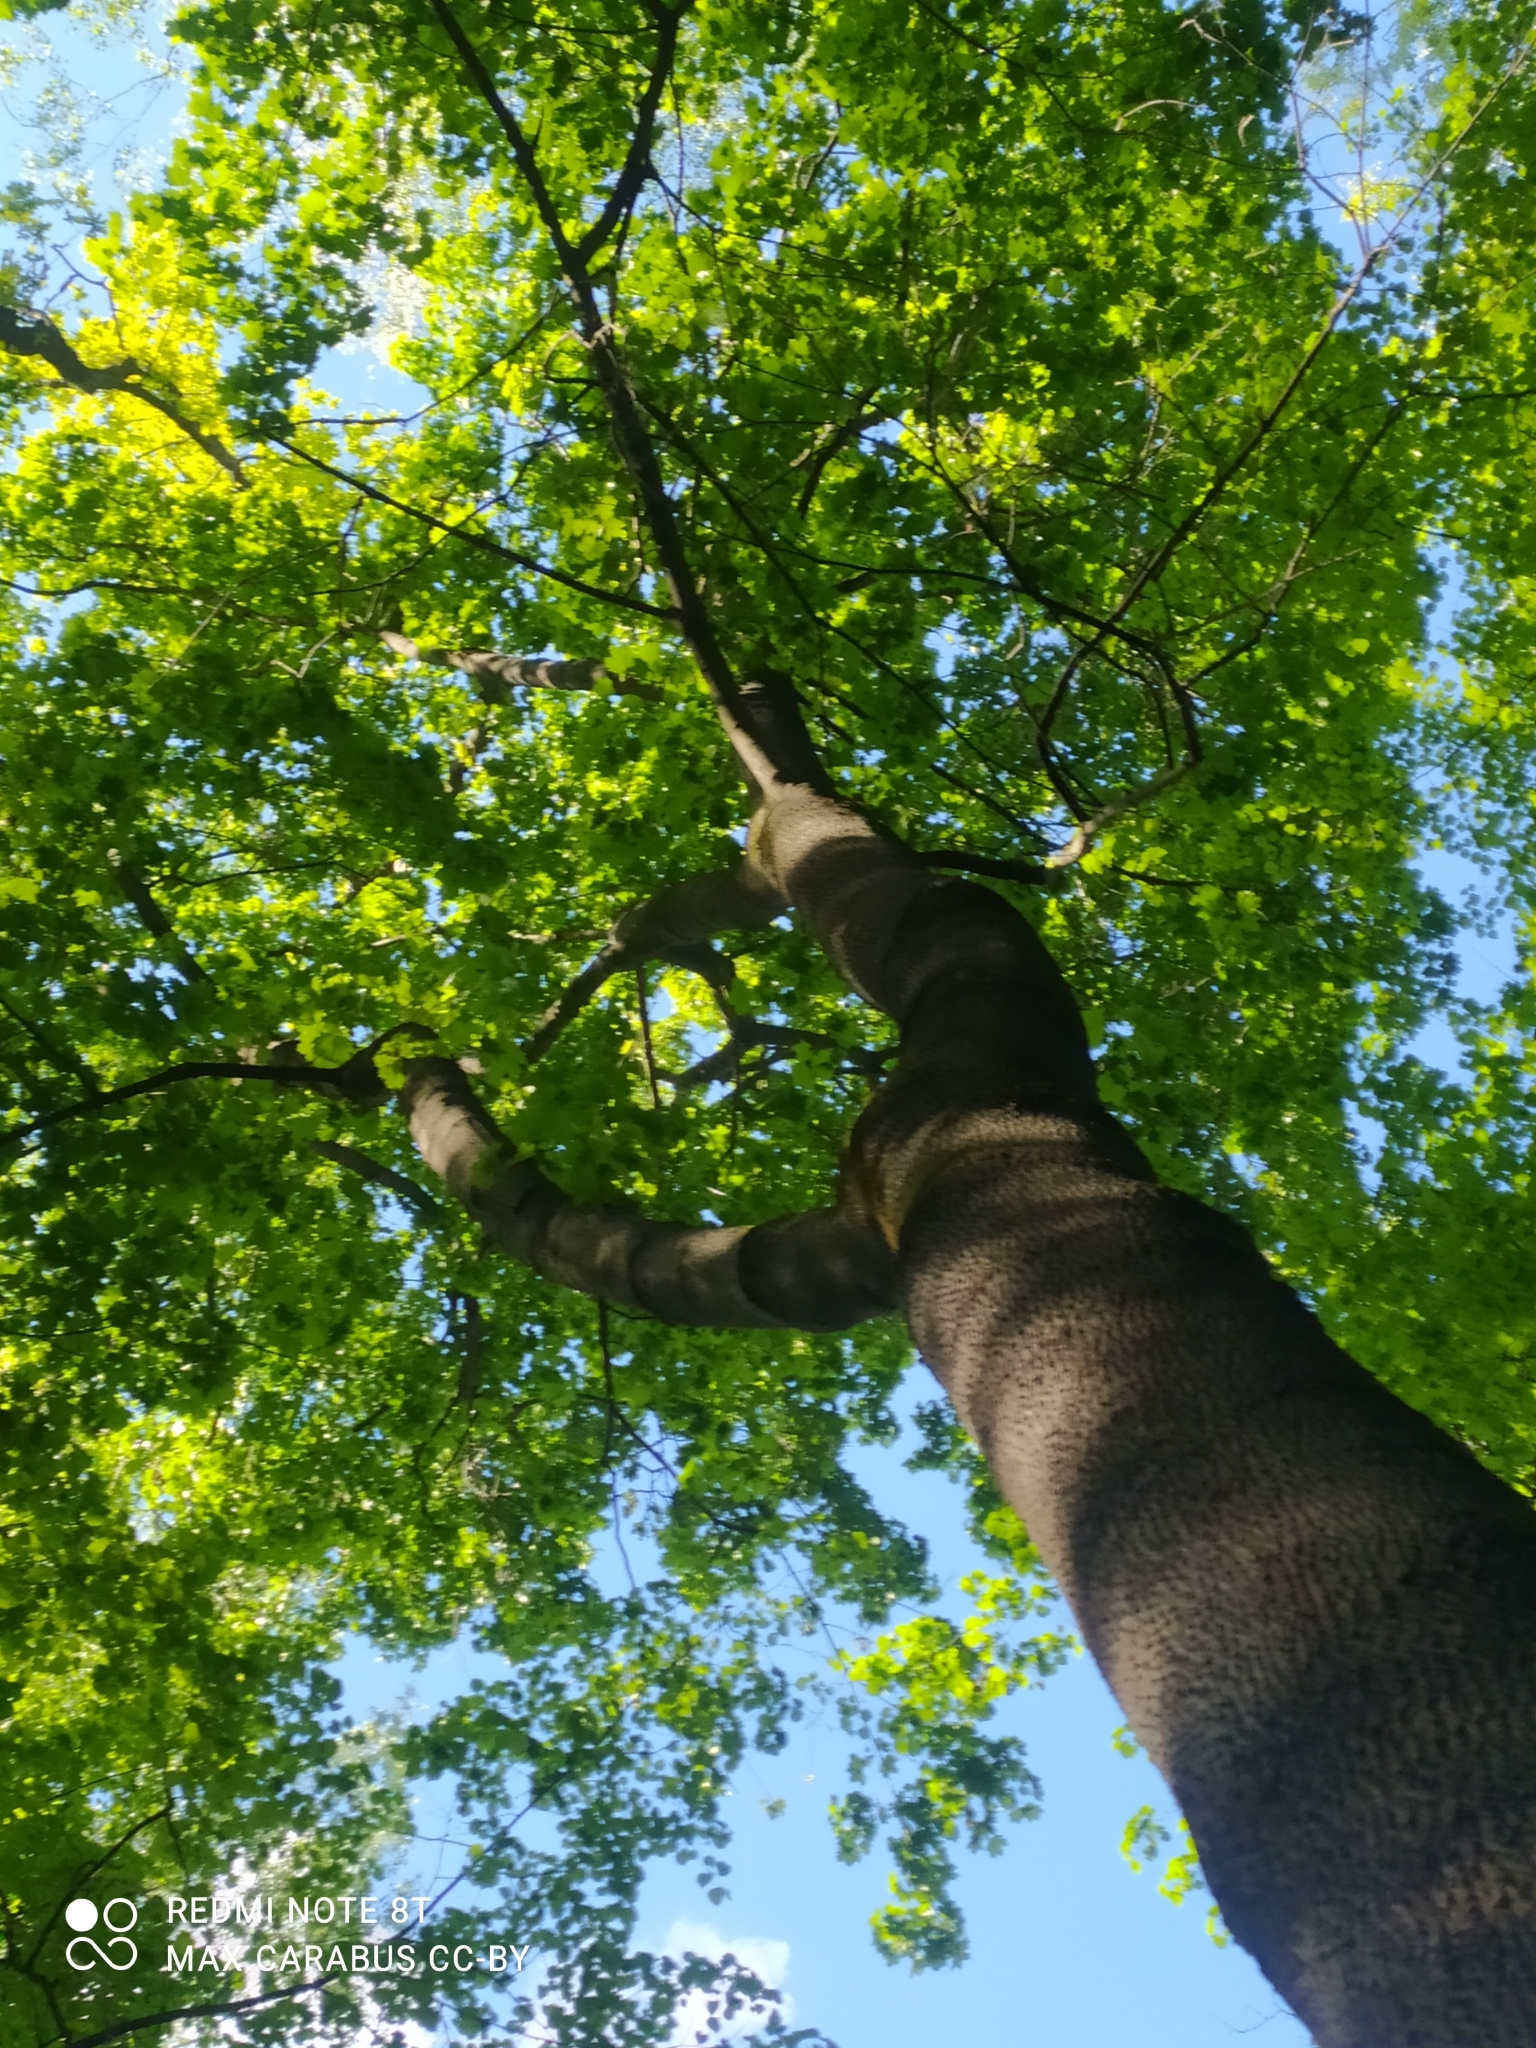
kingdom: Plantae
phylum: Tracheophyta
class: Magnoliopsida
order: Sapindales
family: Sapindaceae
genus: Acer
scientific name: Acer platanoides
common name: Norway maple
